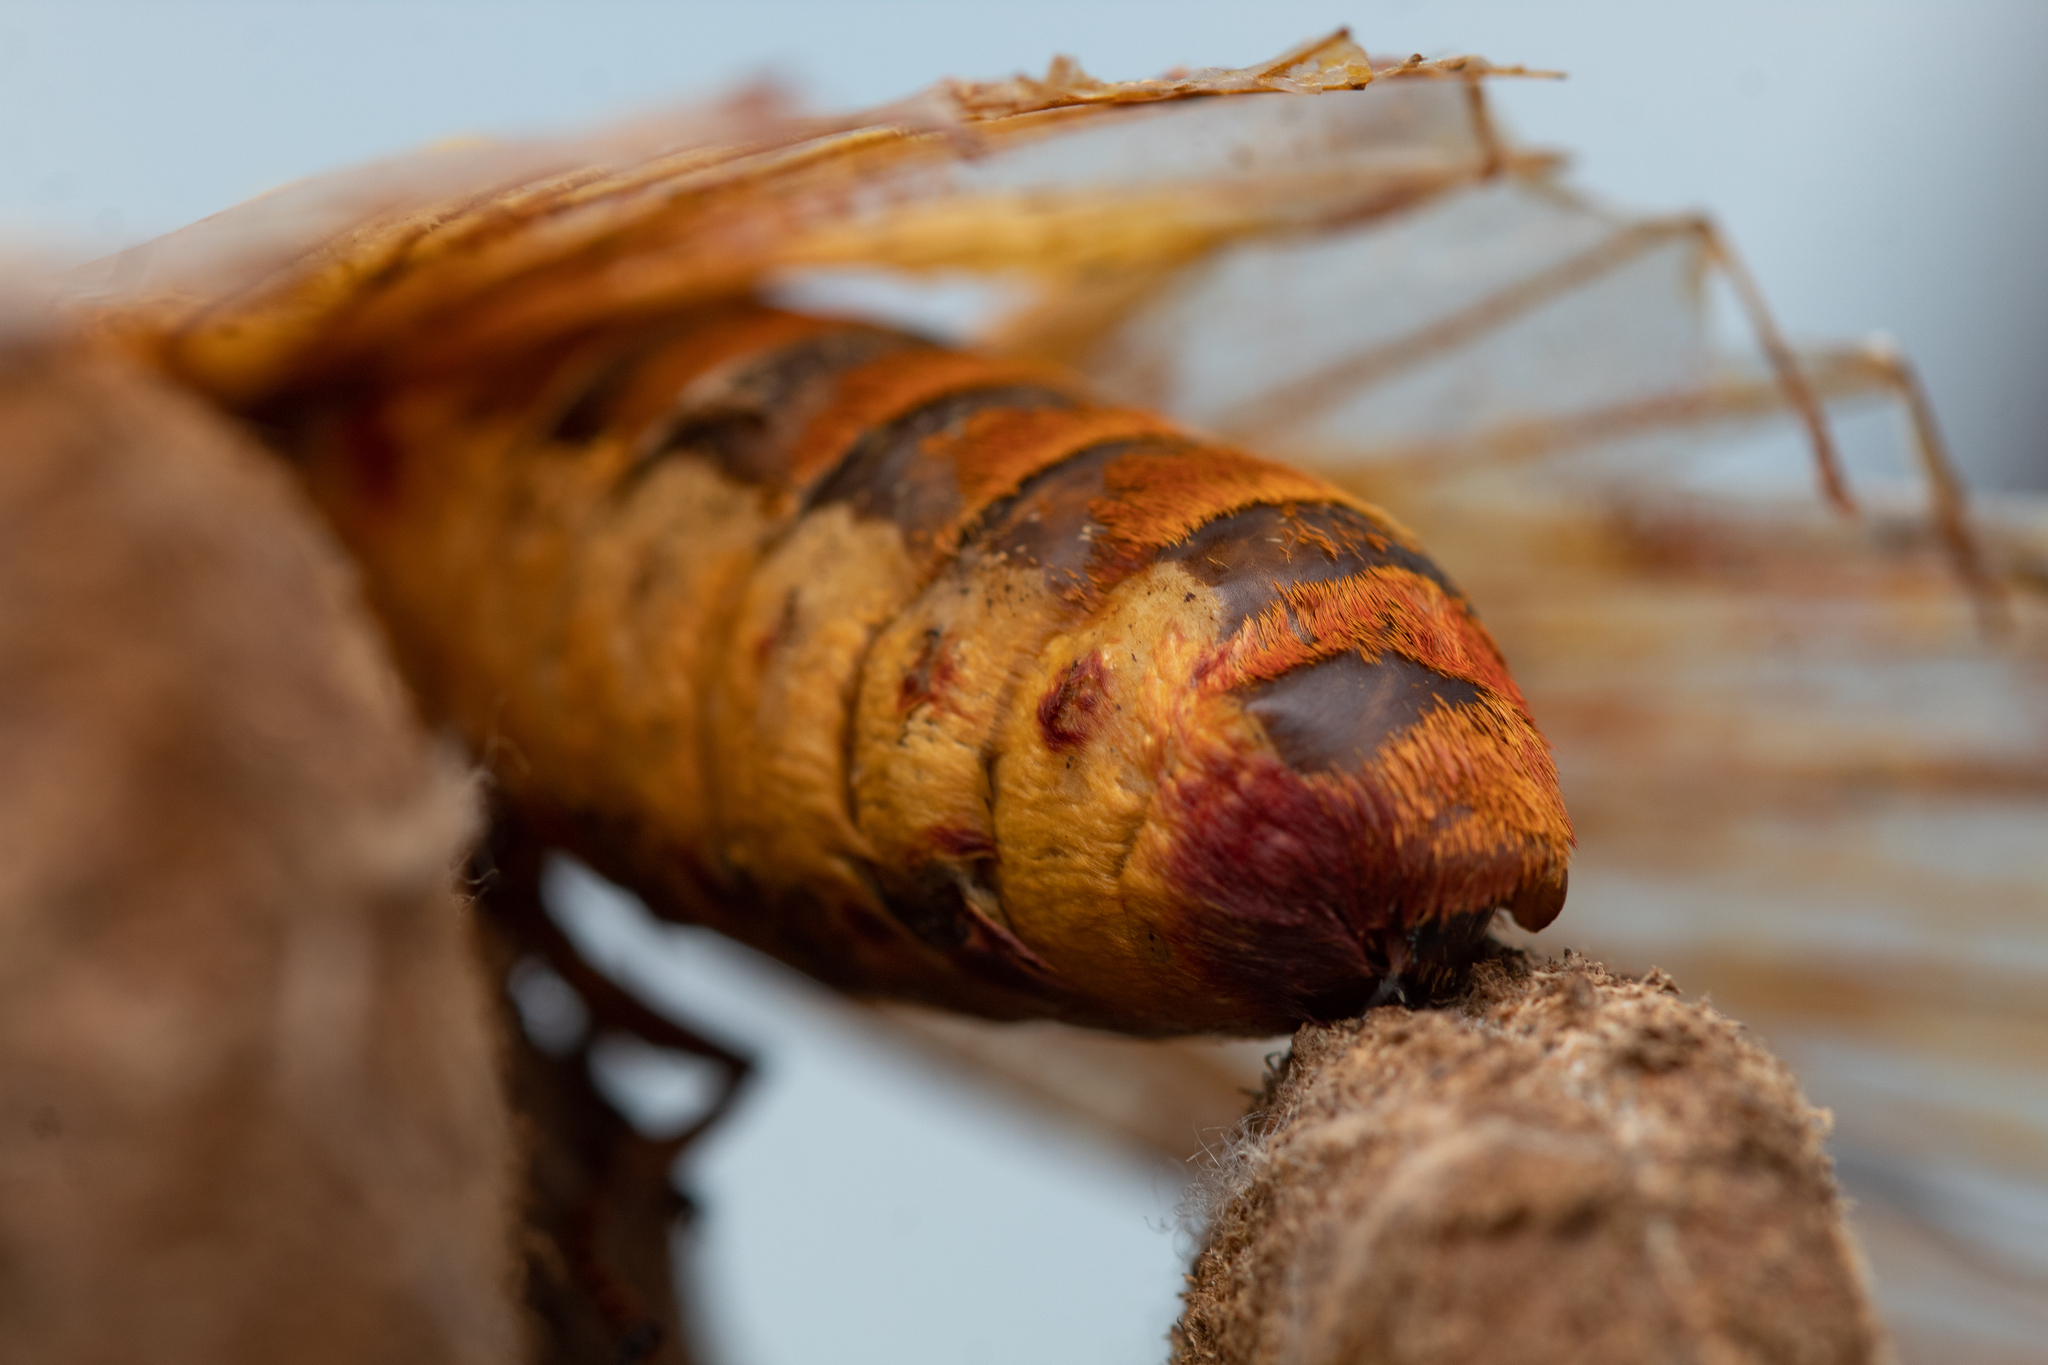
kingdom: Animalia
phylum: Arthropoda
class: Insecta
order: Lepidoptera
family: Saturniidae
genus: Citheronia
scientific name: Citheronia laocoon
